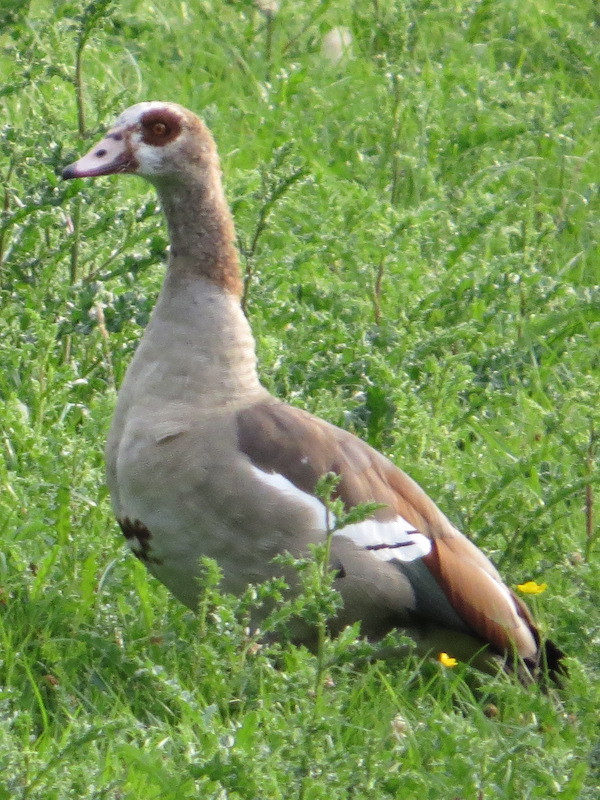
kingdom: Animalia
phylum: Chordata
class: Aves
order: Anseriformes
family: Anatidae
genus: Alopochen
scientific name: Alopochen aegyptiaca
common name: Egyptian goose
